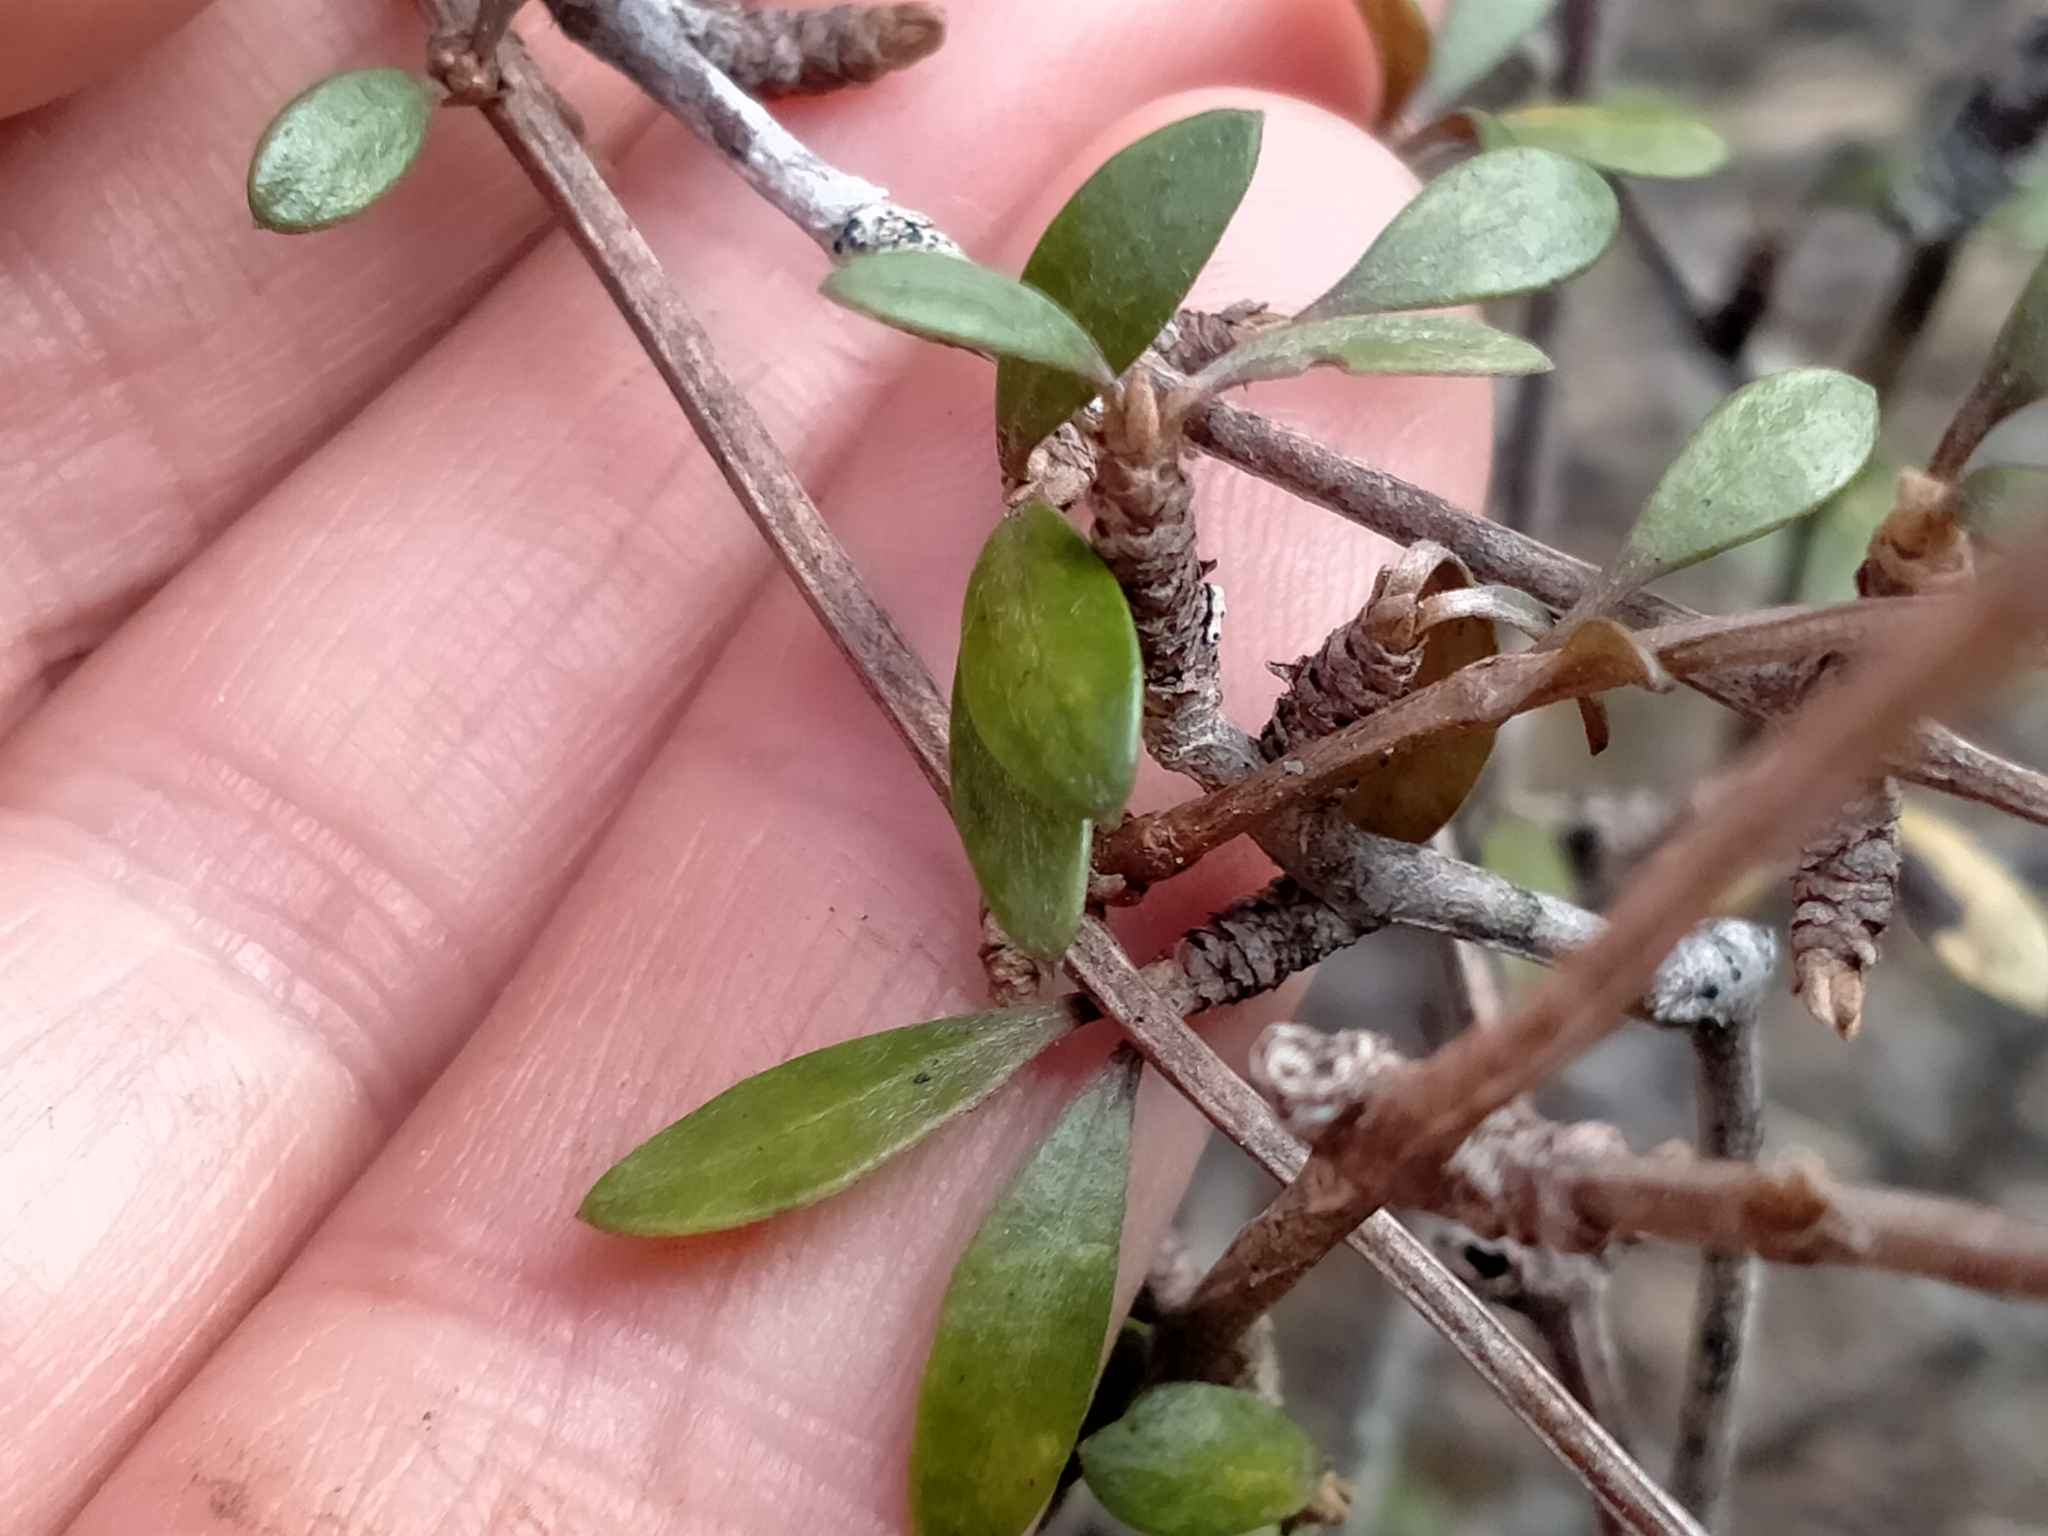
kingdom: Plantae
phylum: Tracheophyta
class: Magnoliopsida
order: Asterales
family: Asteraceae
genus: Olearia
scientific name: Olearia laxiflora
